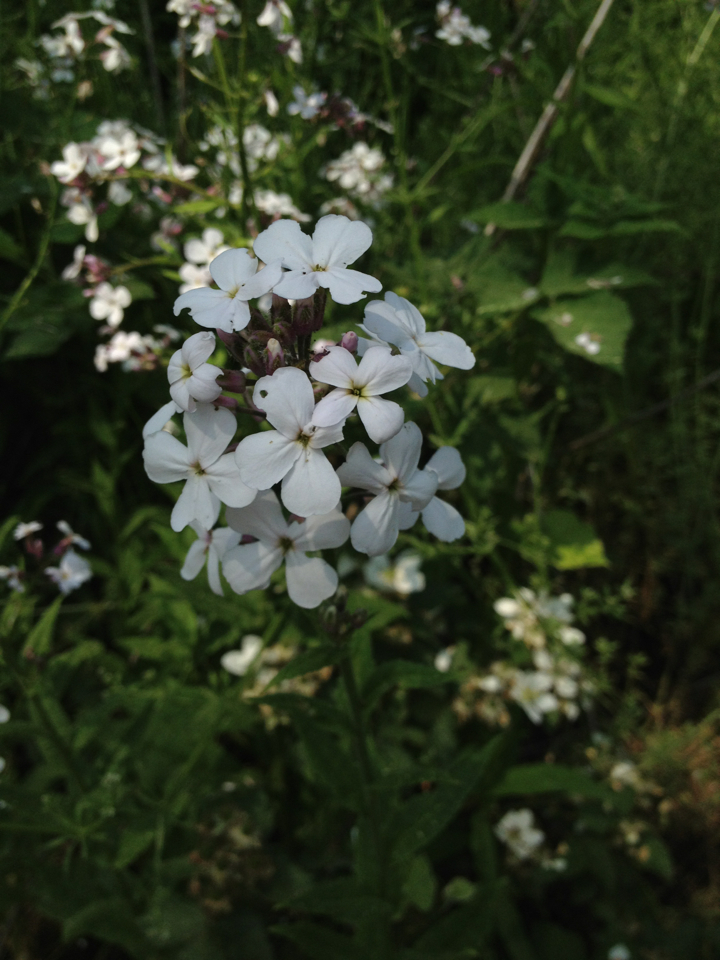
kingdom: Plantae
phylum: Tracheophyta
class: Magnoliopsida
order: Brassicales
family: Brassicaceae
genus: Hesperis
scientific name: Hesperis matronalis
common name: Dame's-violet
